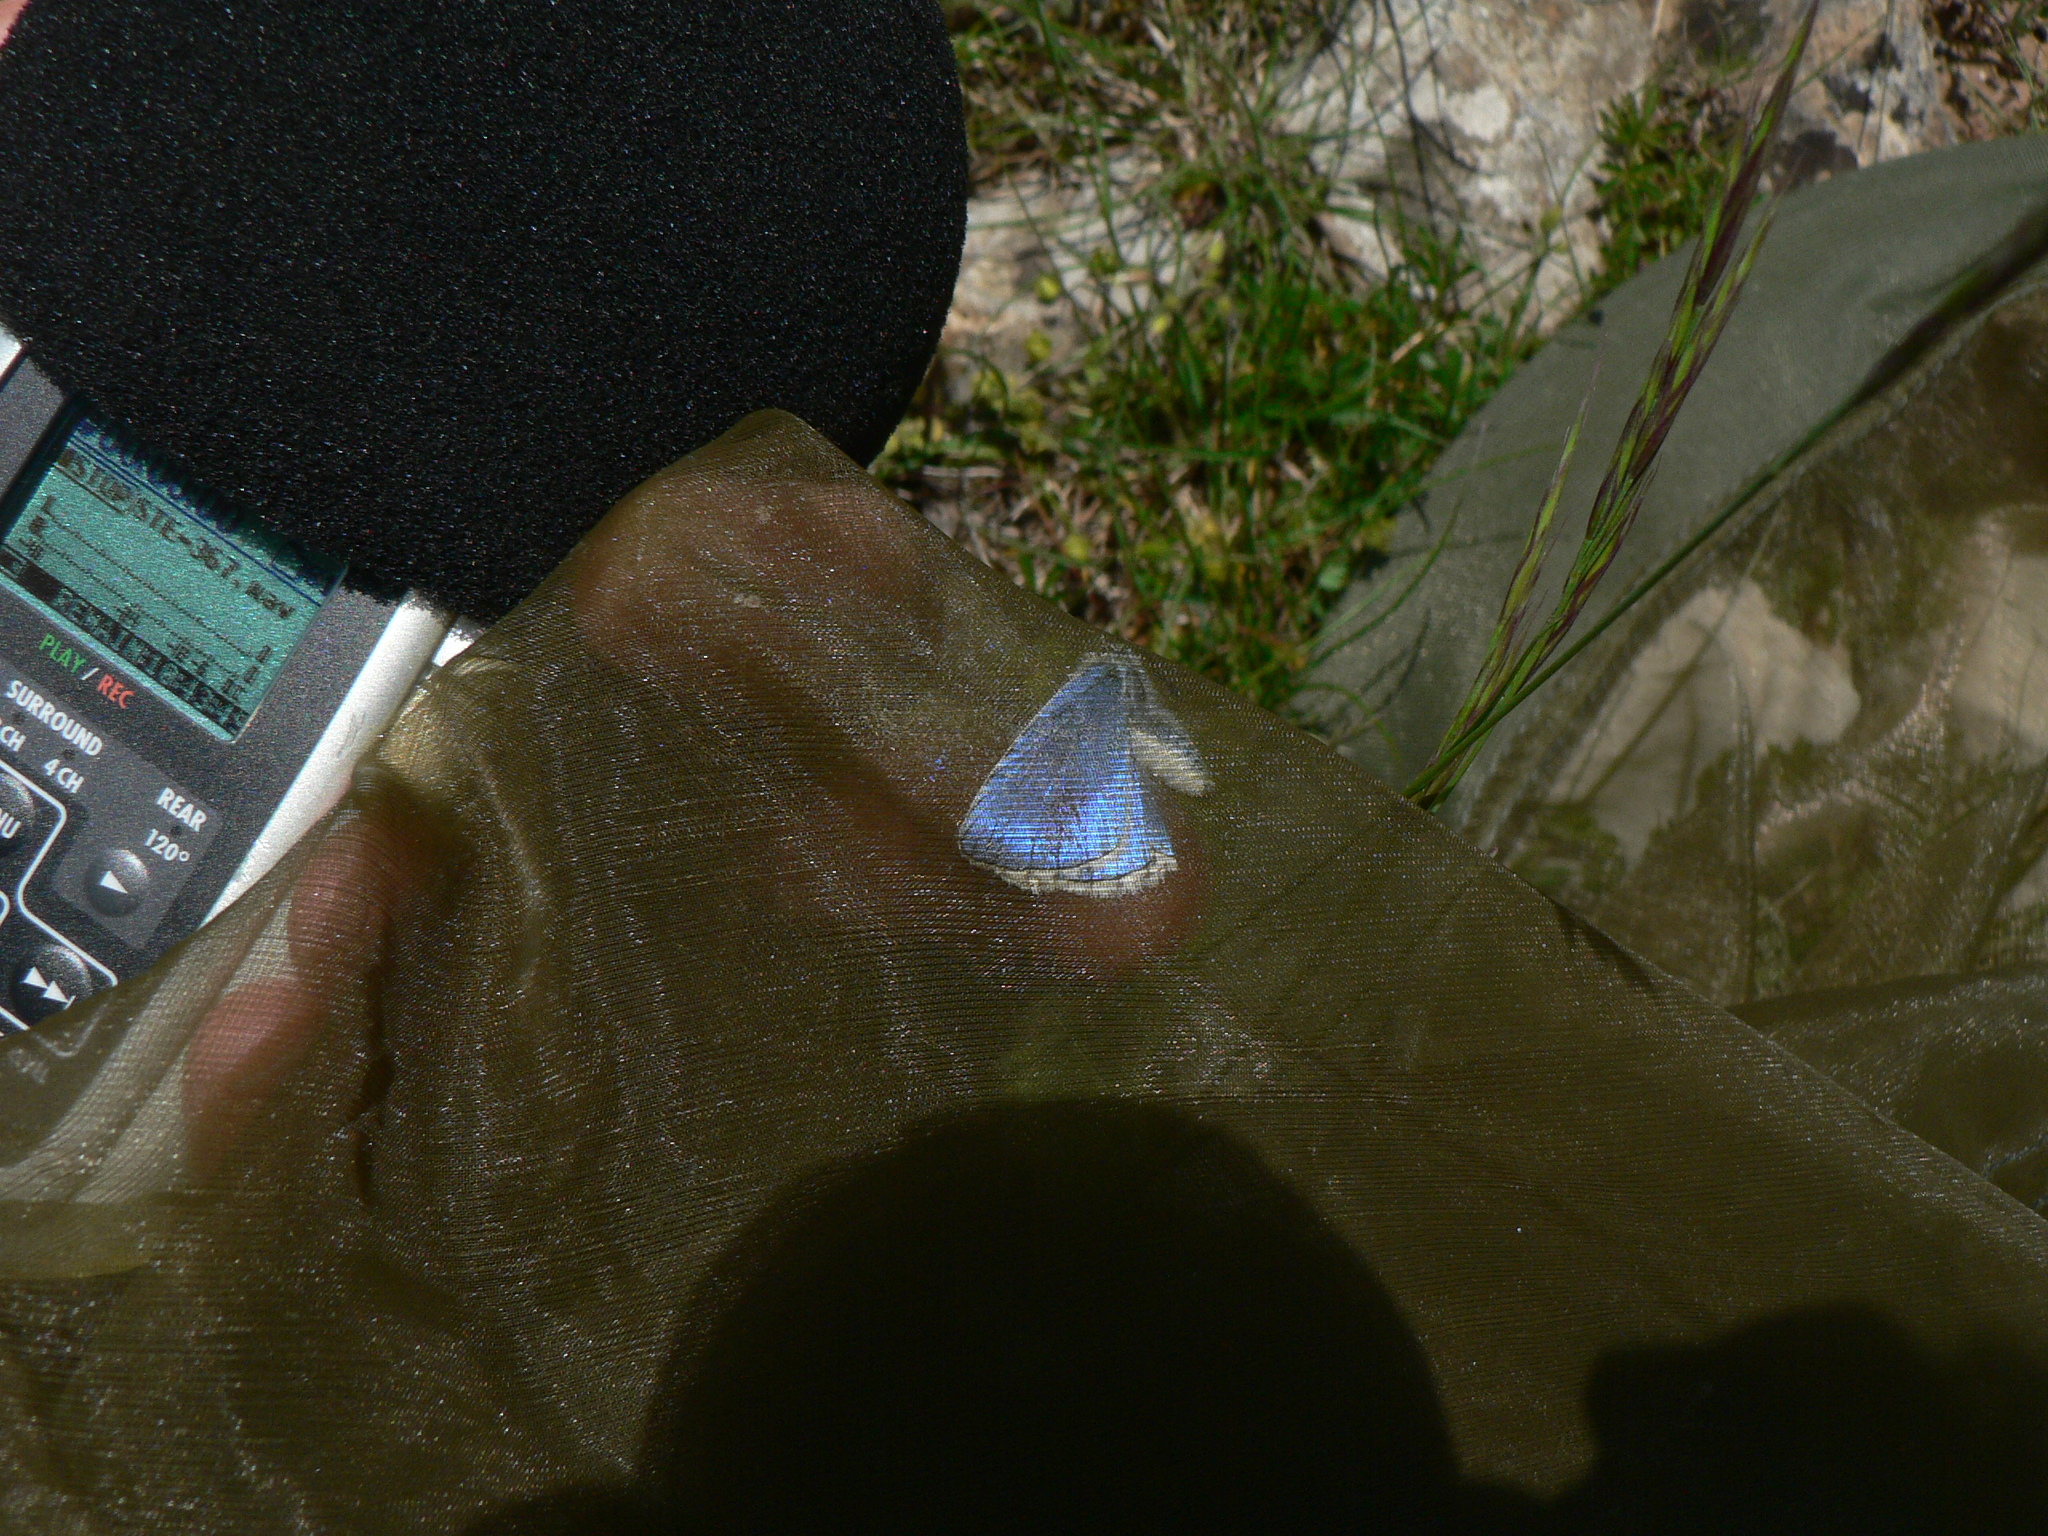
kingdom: Animalia
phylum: Arthropoda
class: Insecta
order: Lepidoptera
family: Lycaenidae
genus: Lysandra
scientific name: Lysandra bellargus
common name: Adonis blue
